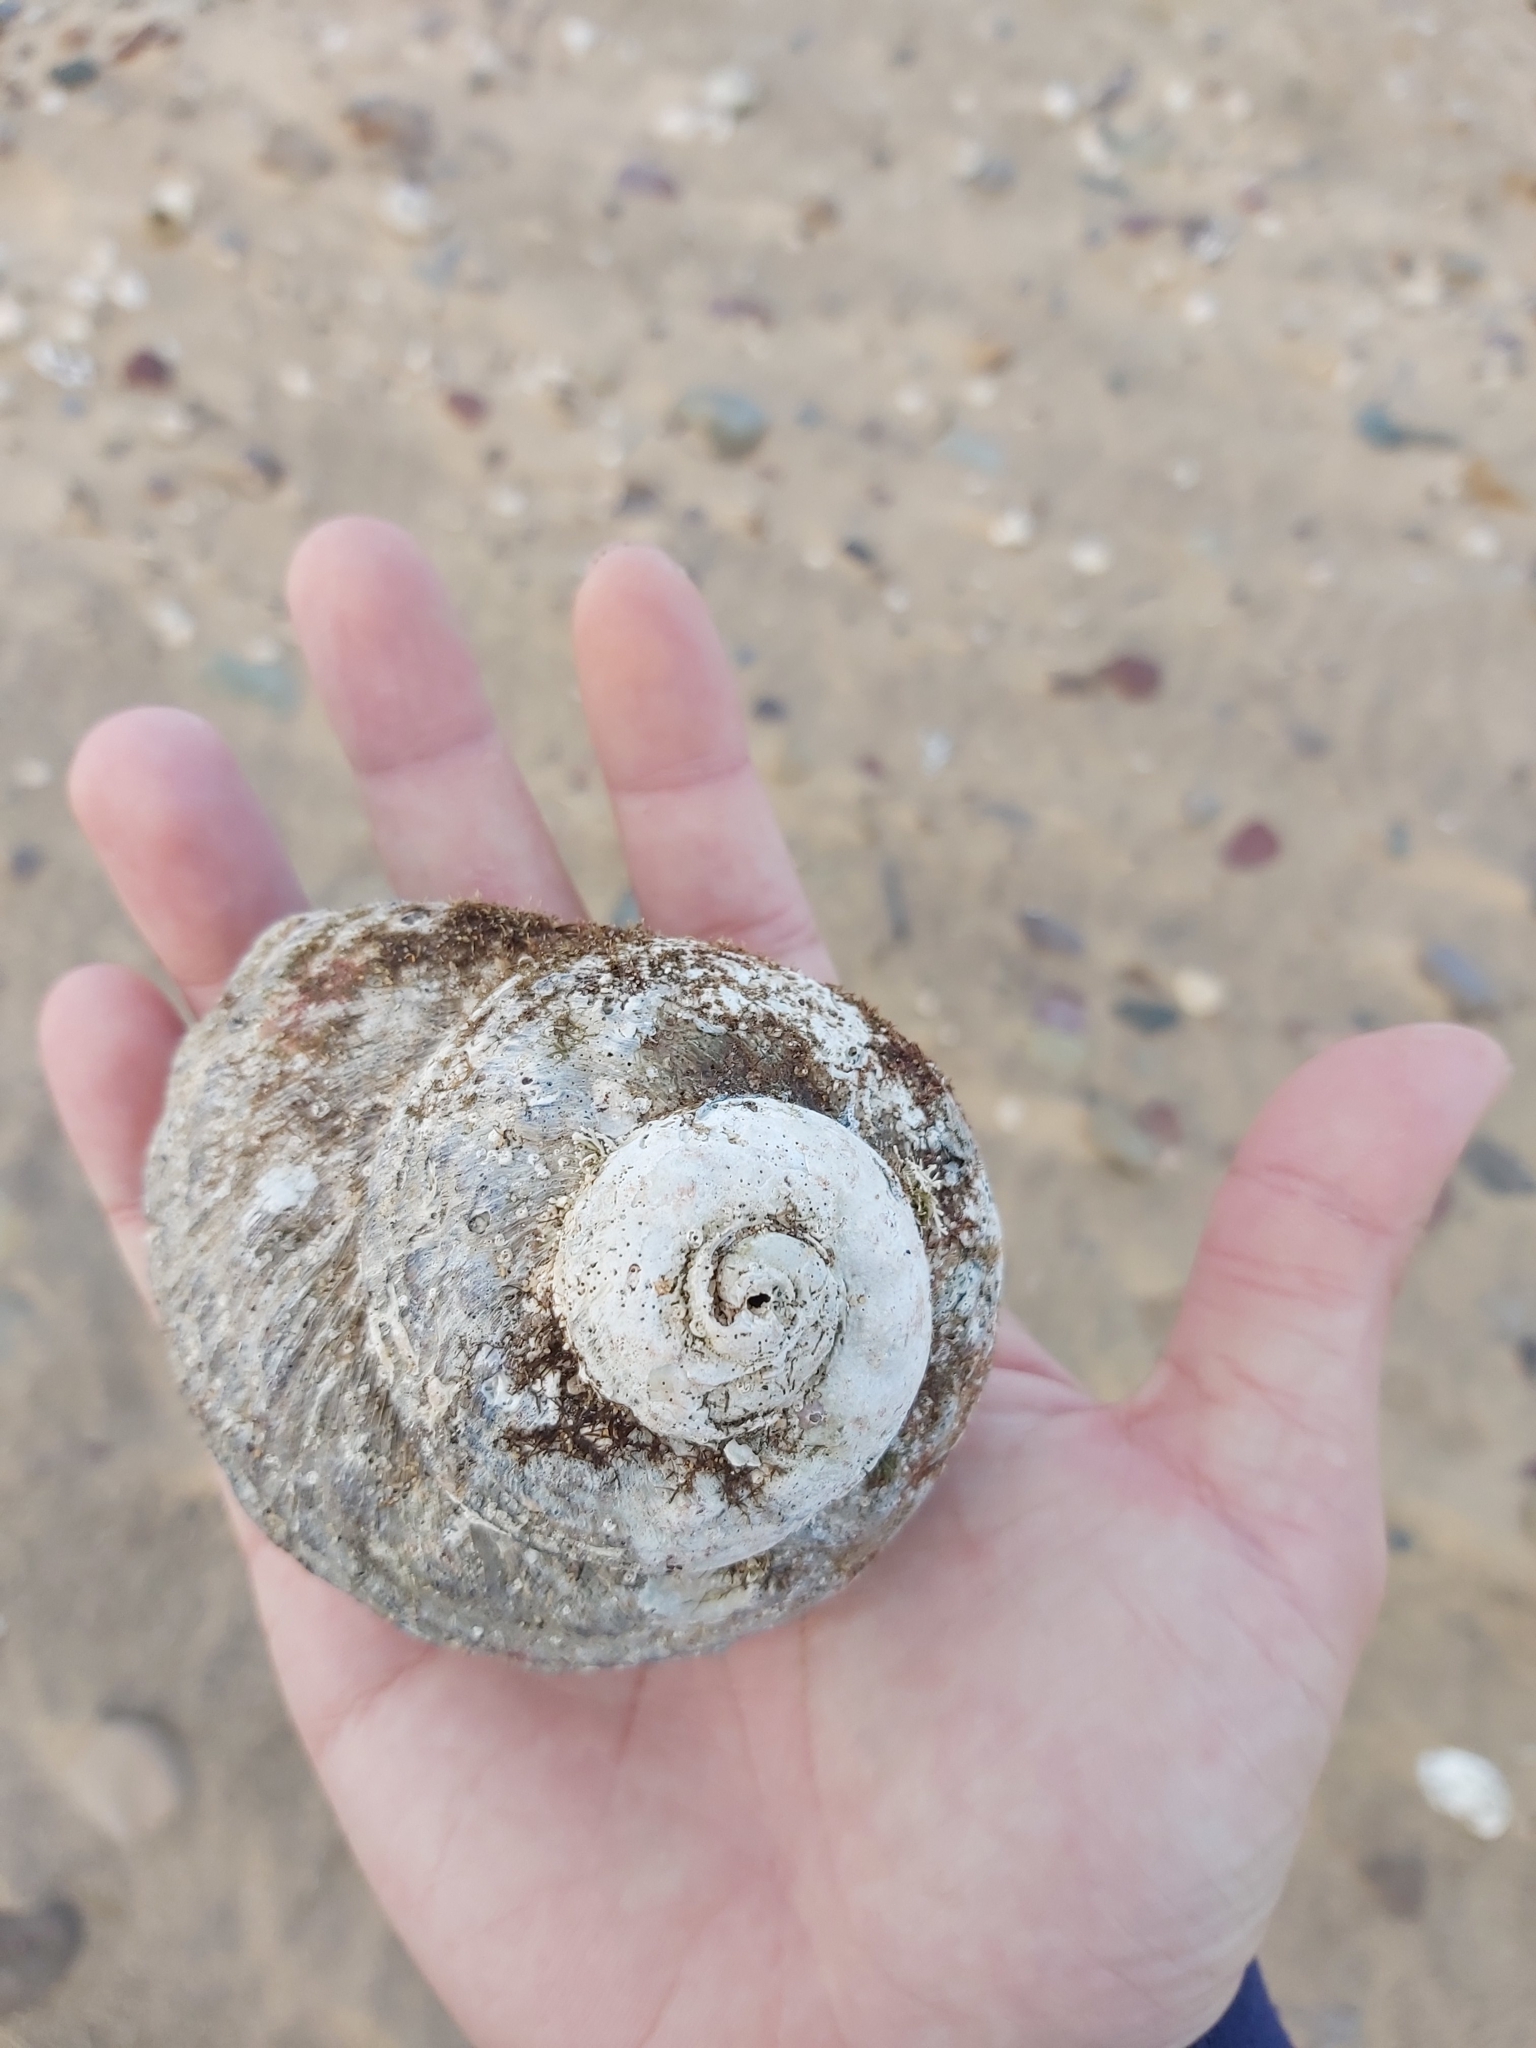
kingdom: Animalia
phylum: Mollusca
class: Gastropoda
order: Trochida
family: Turbinidae
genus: Lunella
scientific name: Lunella torquata
